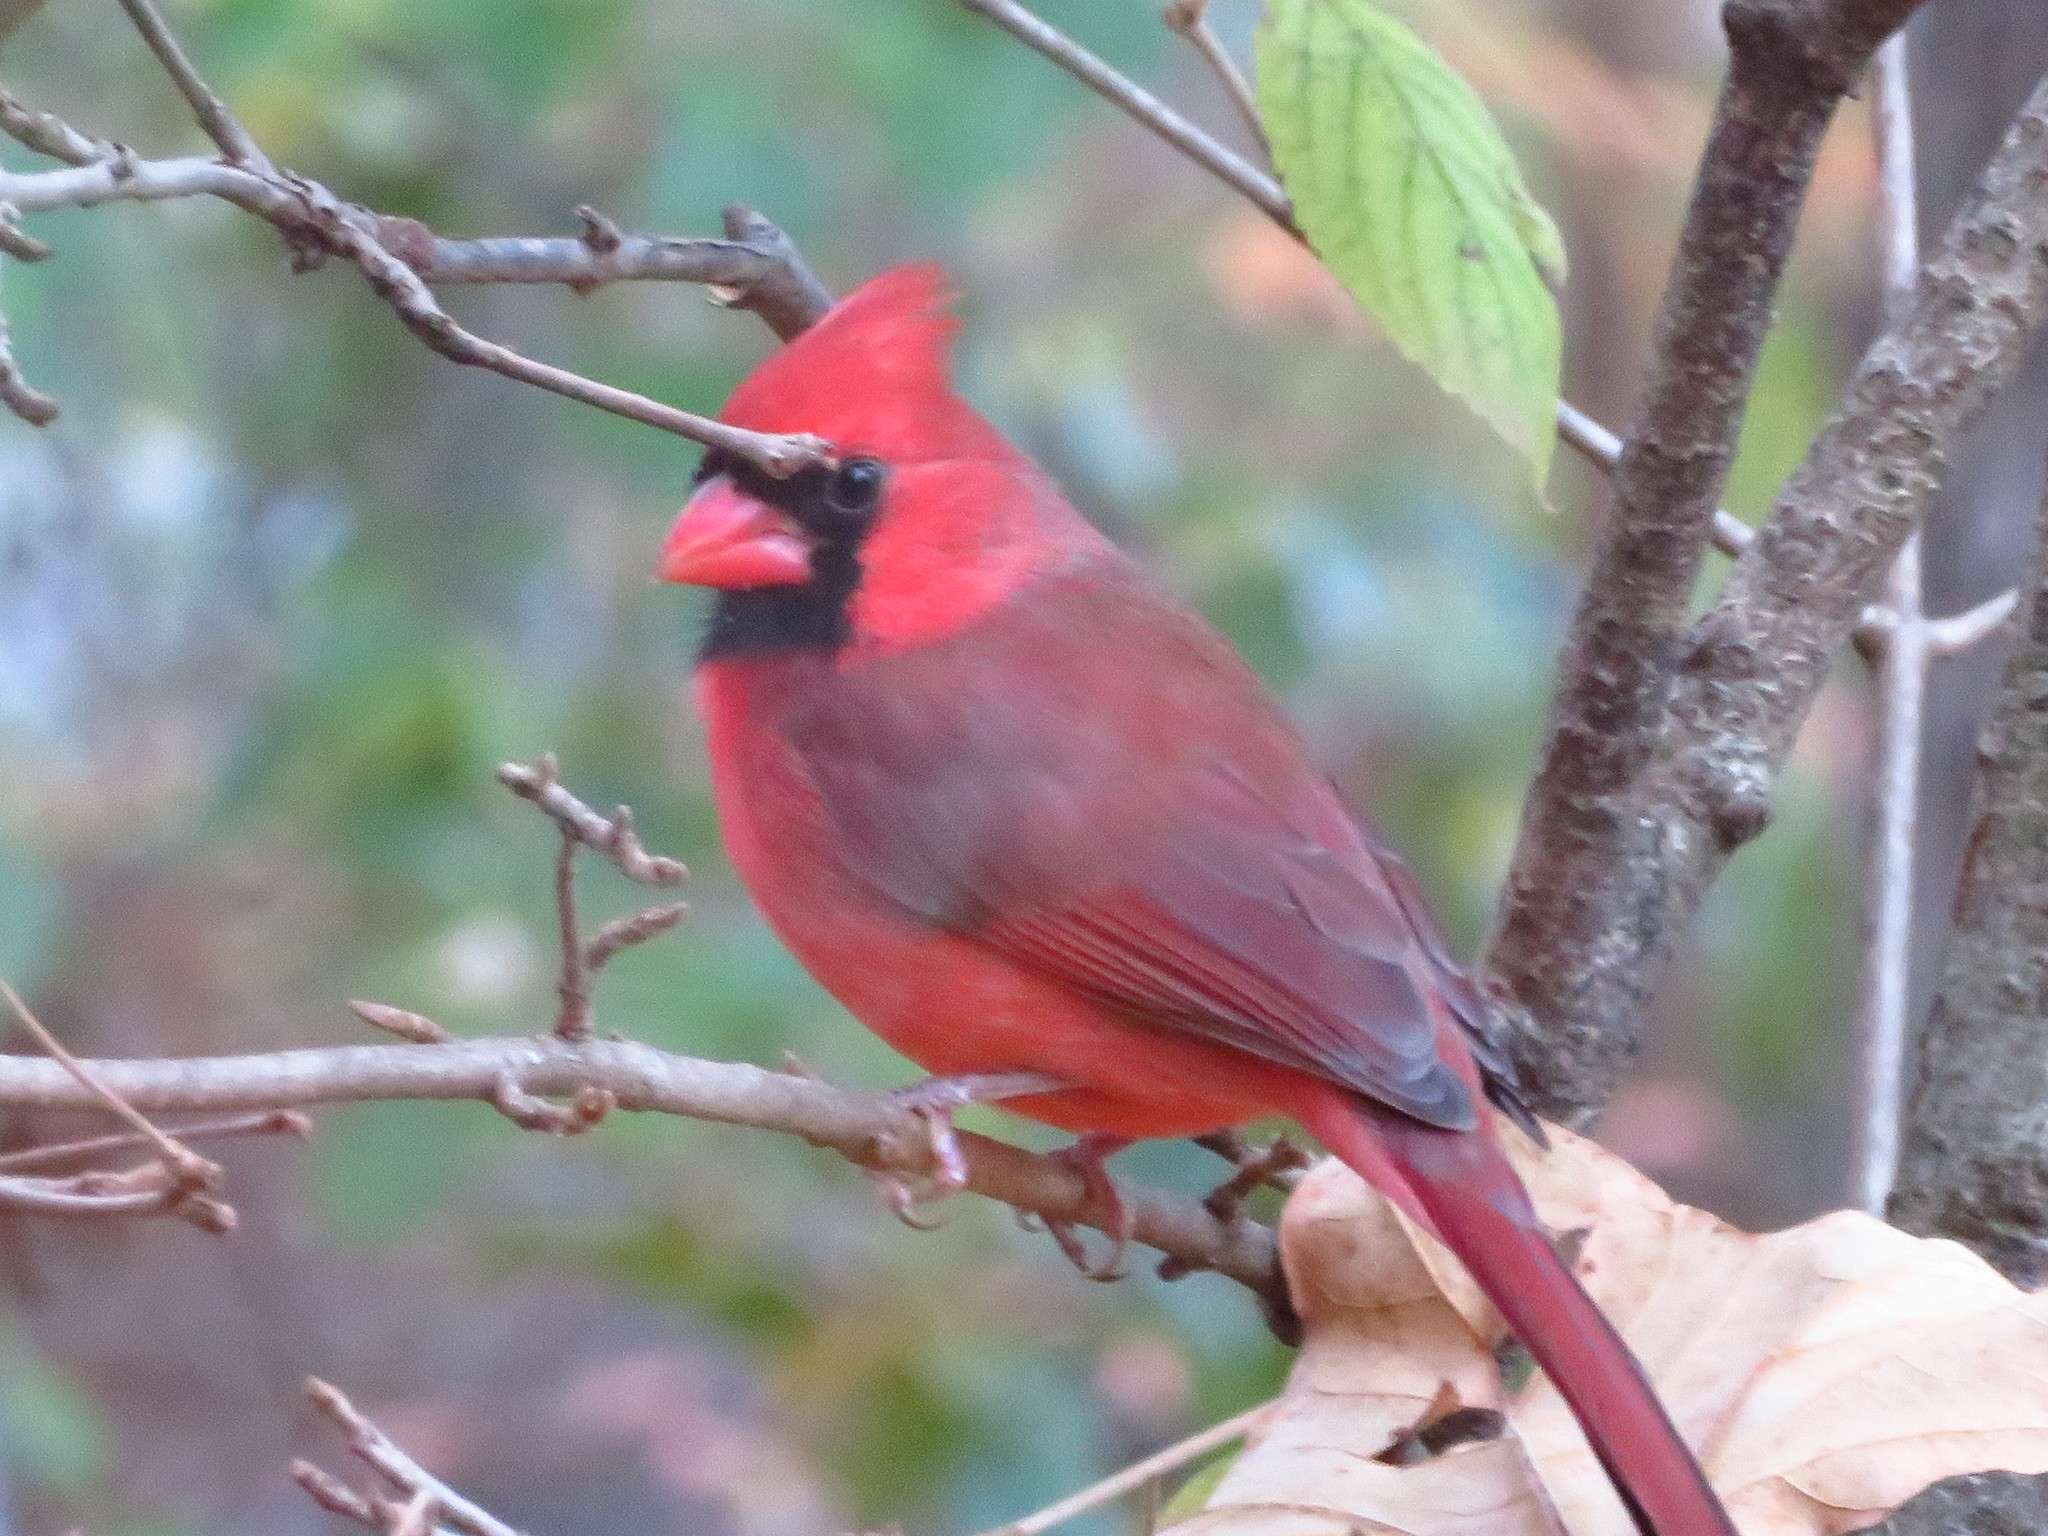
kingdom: Animalia
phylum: Chordata
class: Aves
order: Passeriformes
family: Cardinalidae
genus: Cardinalis
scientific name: Cardinalis cardinalis
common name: Northern cardinal
